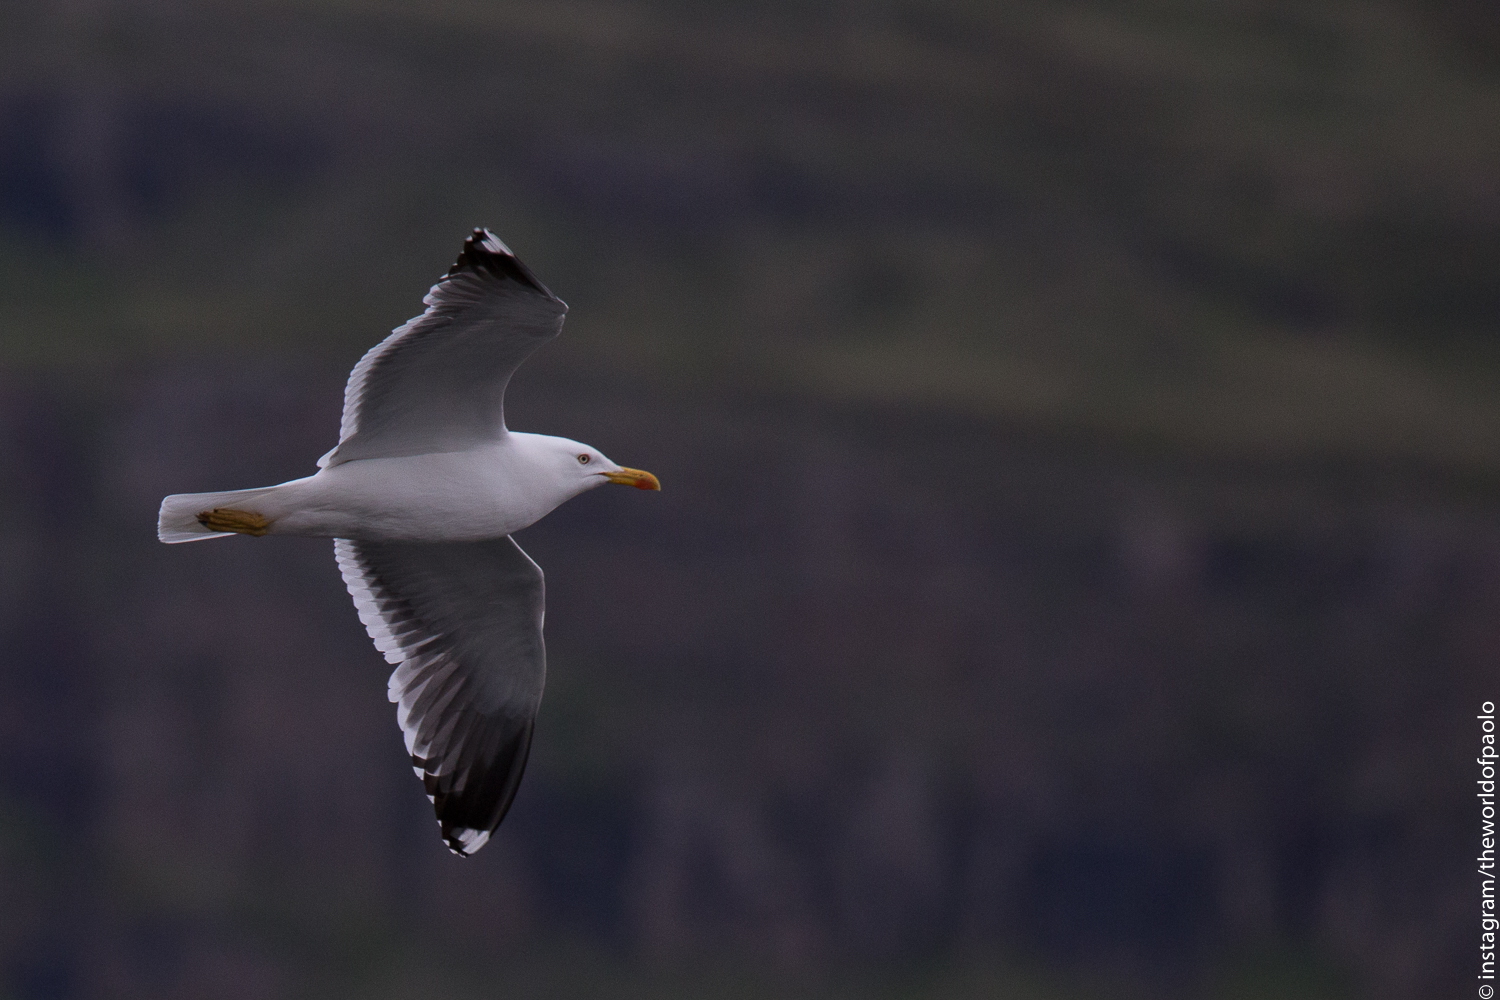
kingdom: Animalia
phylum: Chordata
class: Aves
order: Charadriiformes
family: Laridae
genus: Larus
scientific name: Larus fuscus
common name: Lesser black-backed gull
